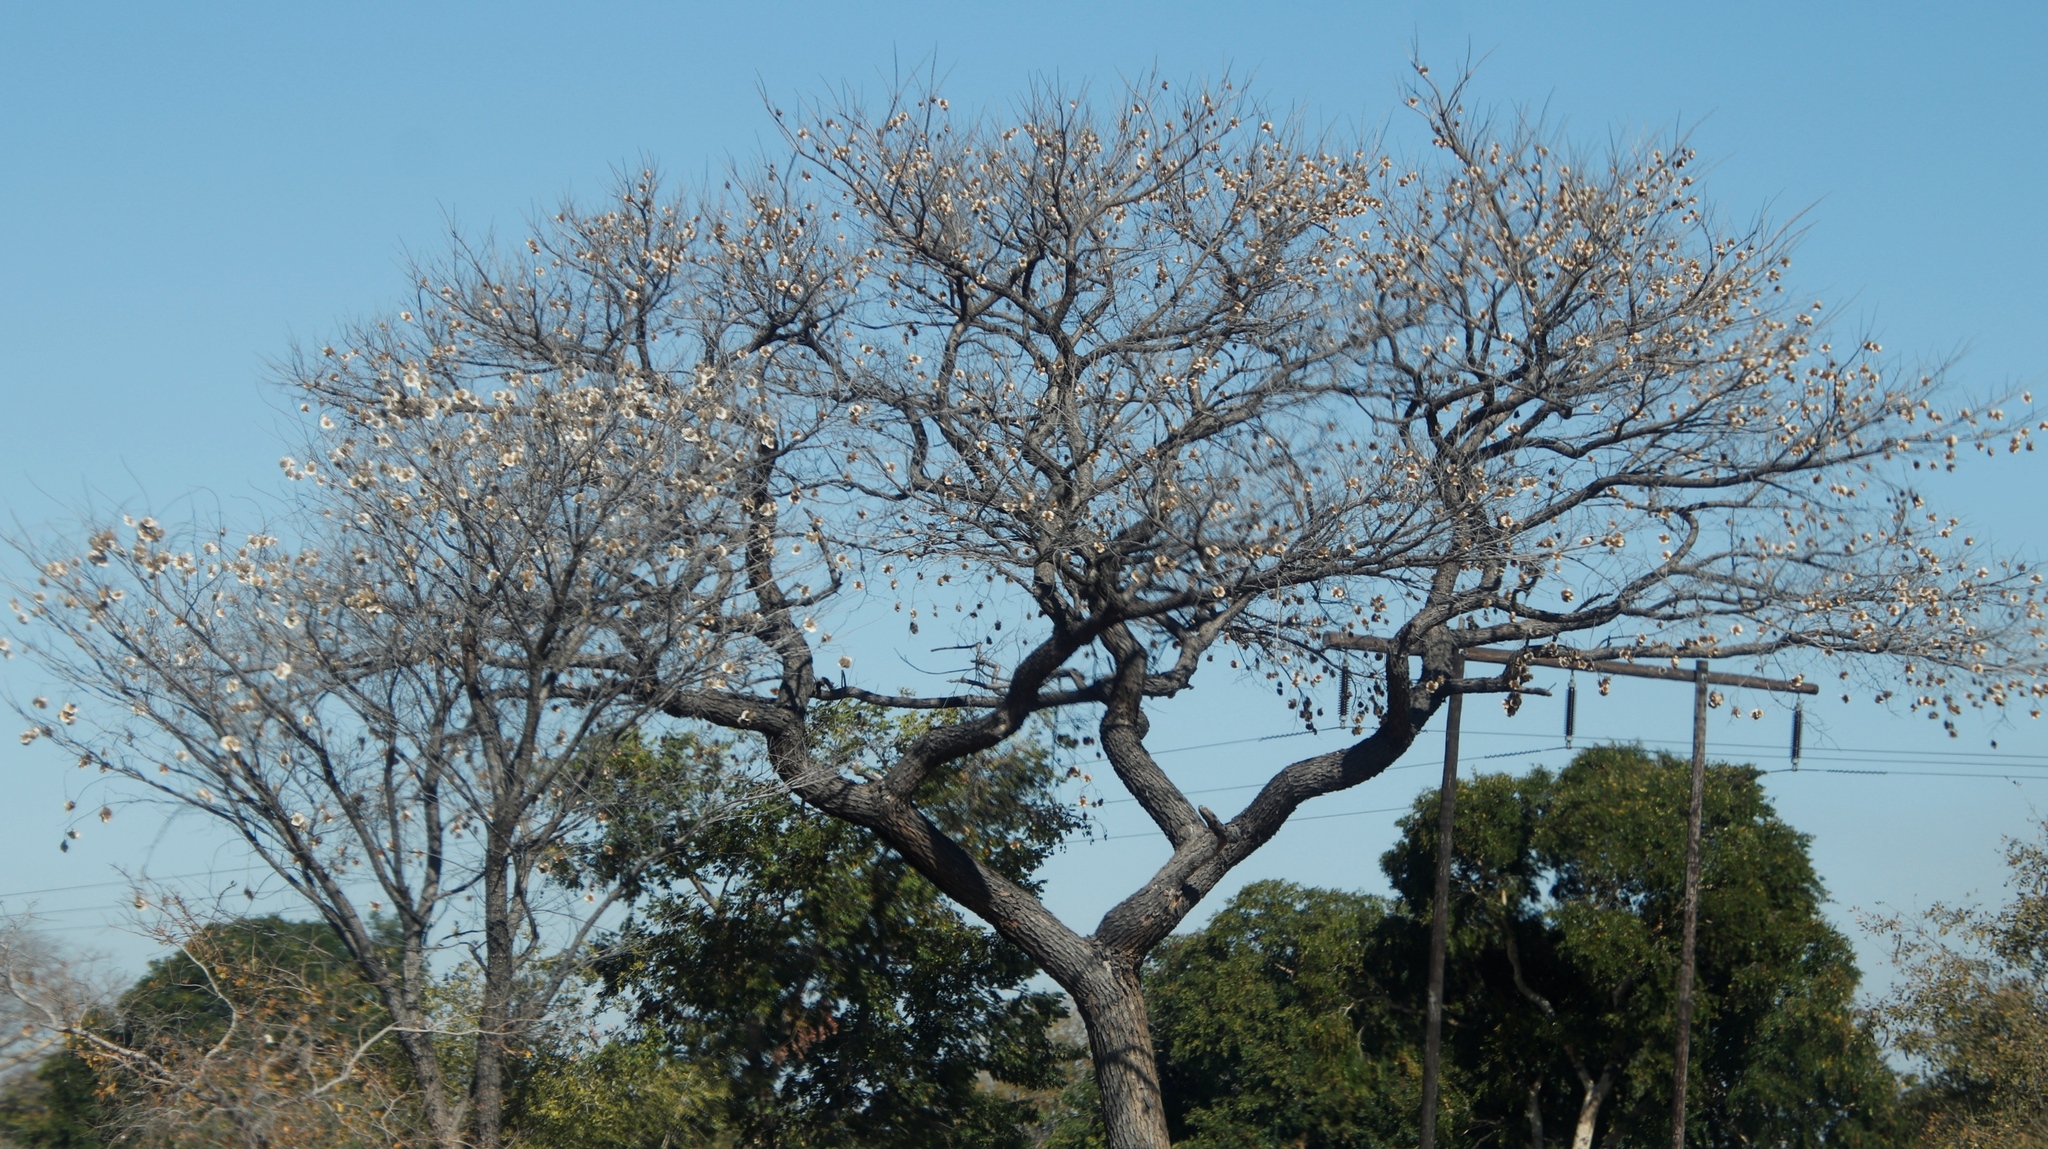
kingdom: Plantae
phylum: Tracheophyta
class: Magnoliopsida
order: Fabales
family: Fabaceae
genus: Pterocarpus
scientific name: Pterocarpus angolensis
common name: Bloodwood tree
